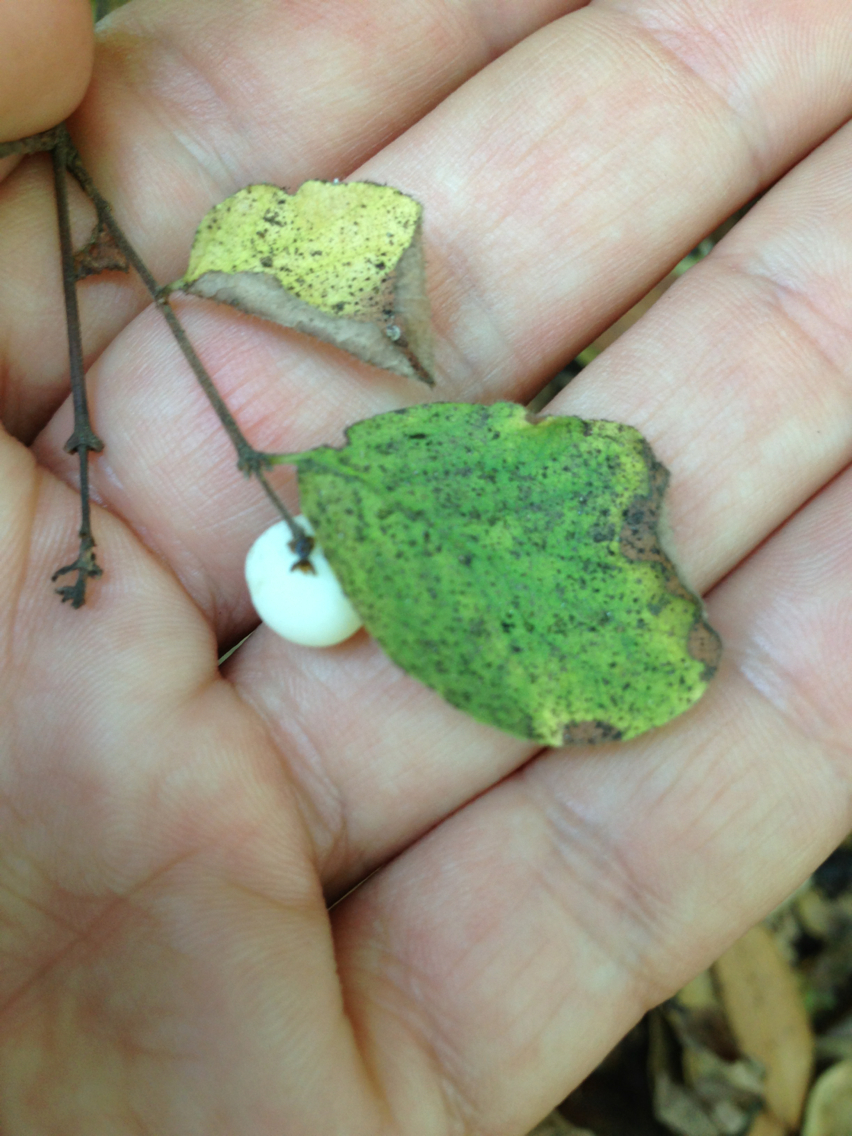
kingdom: Plantae
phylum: Tracheophyta
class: Magnoliopsida
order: Dipsacales
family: Caprifoliaceae
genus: Symphoricarpos
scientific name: Symphoricarpos mollis
